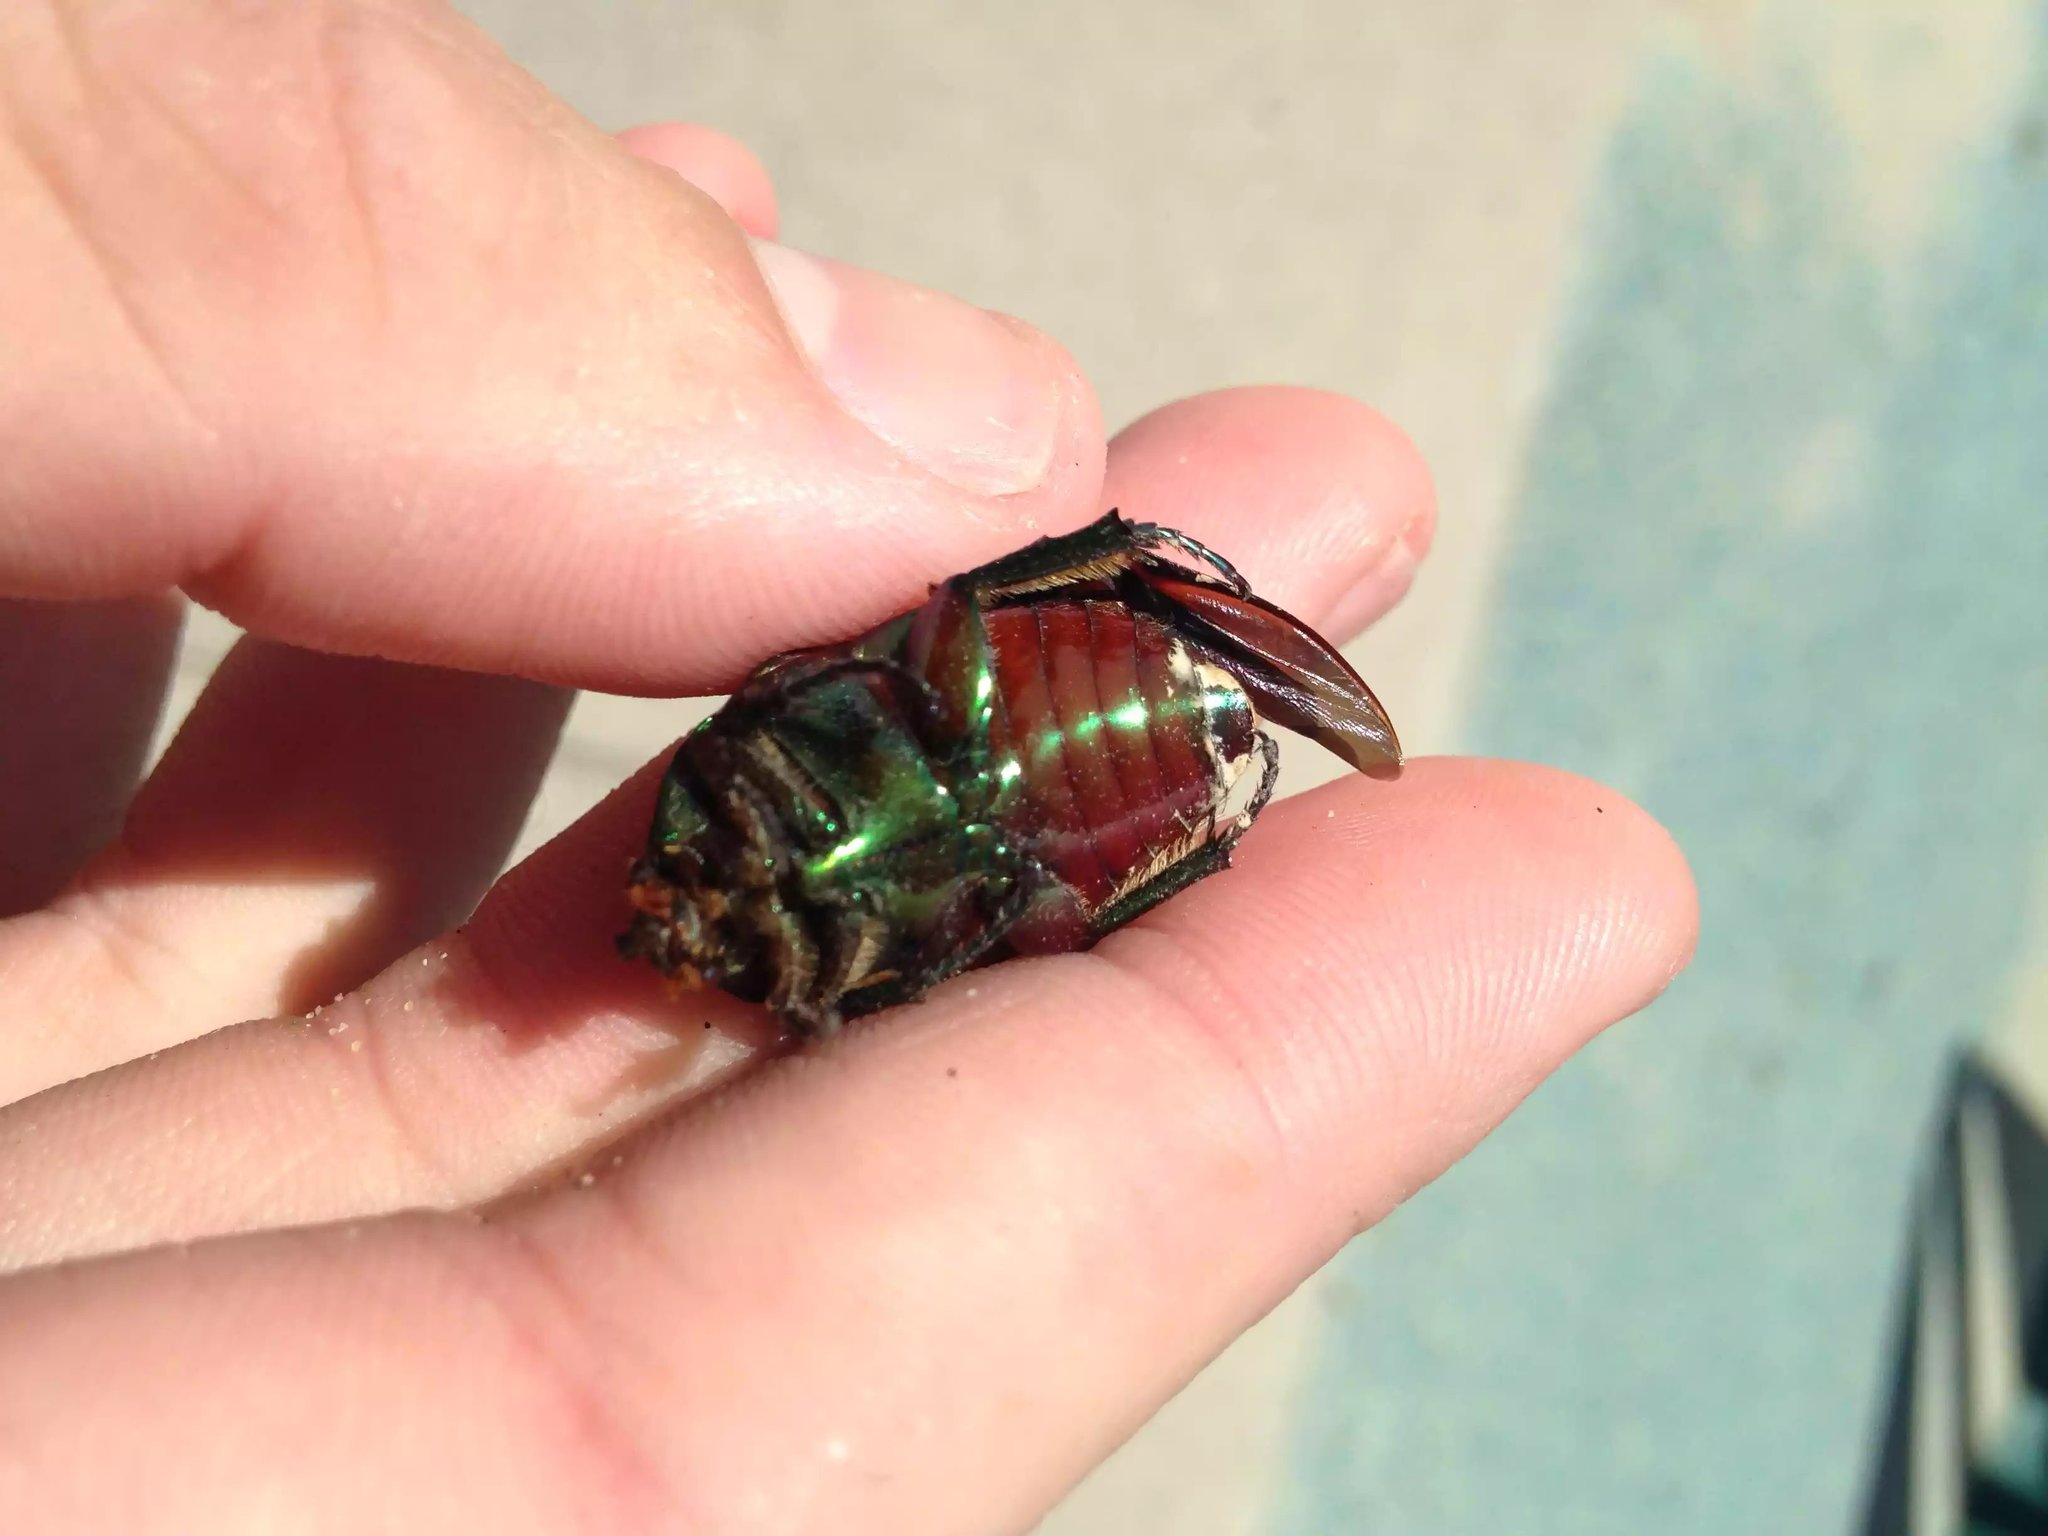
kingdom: Animalia
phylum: Arthropoda
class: Insecta
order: Coleoptera
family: Scarabaeidae
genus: Cotinis
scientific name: Cotinis mutabilis
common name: Figeater beetle
